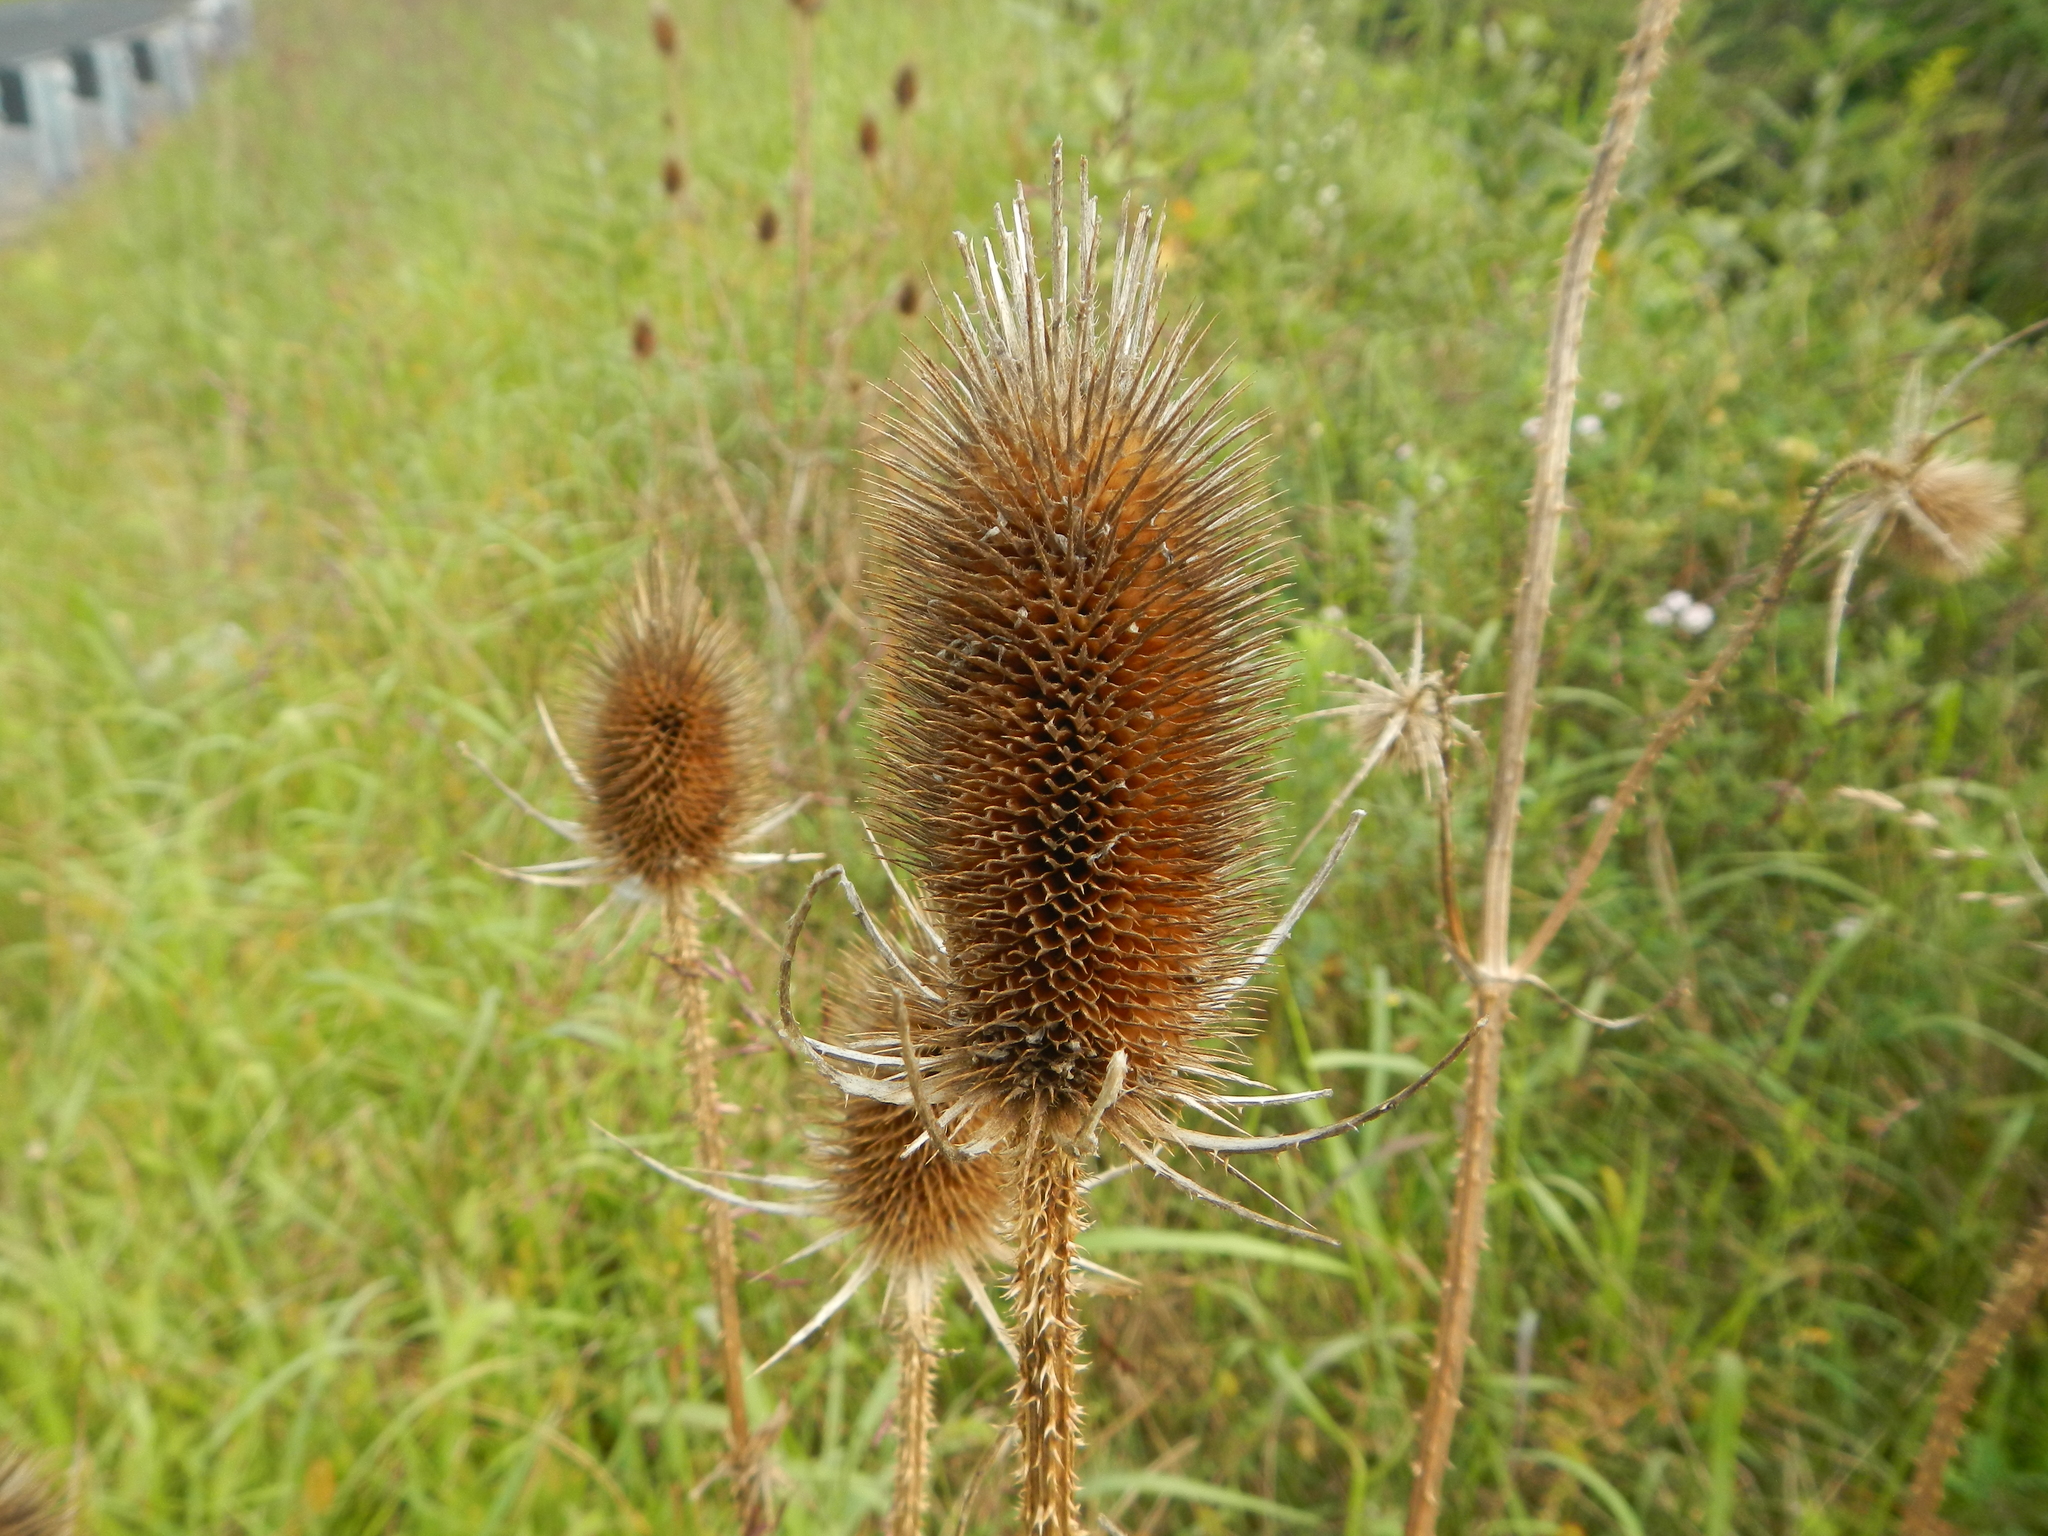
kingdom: Plantae
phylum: Tracheophyta
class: Magnoliopsida
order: Dipsacales
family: Caprifoliaceae
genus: Dipsacus
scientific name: Dipsacus fullonum
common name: Teasel
